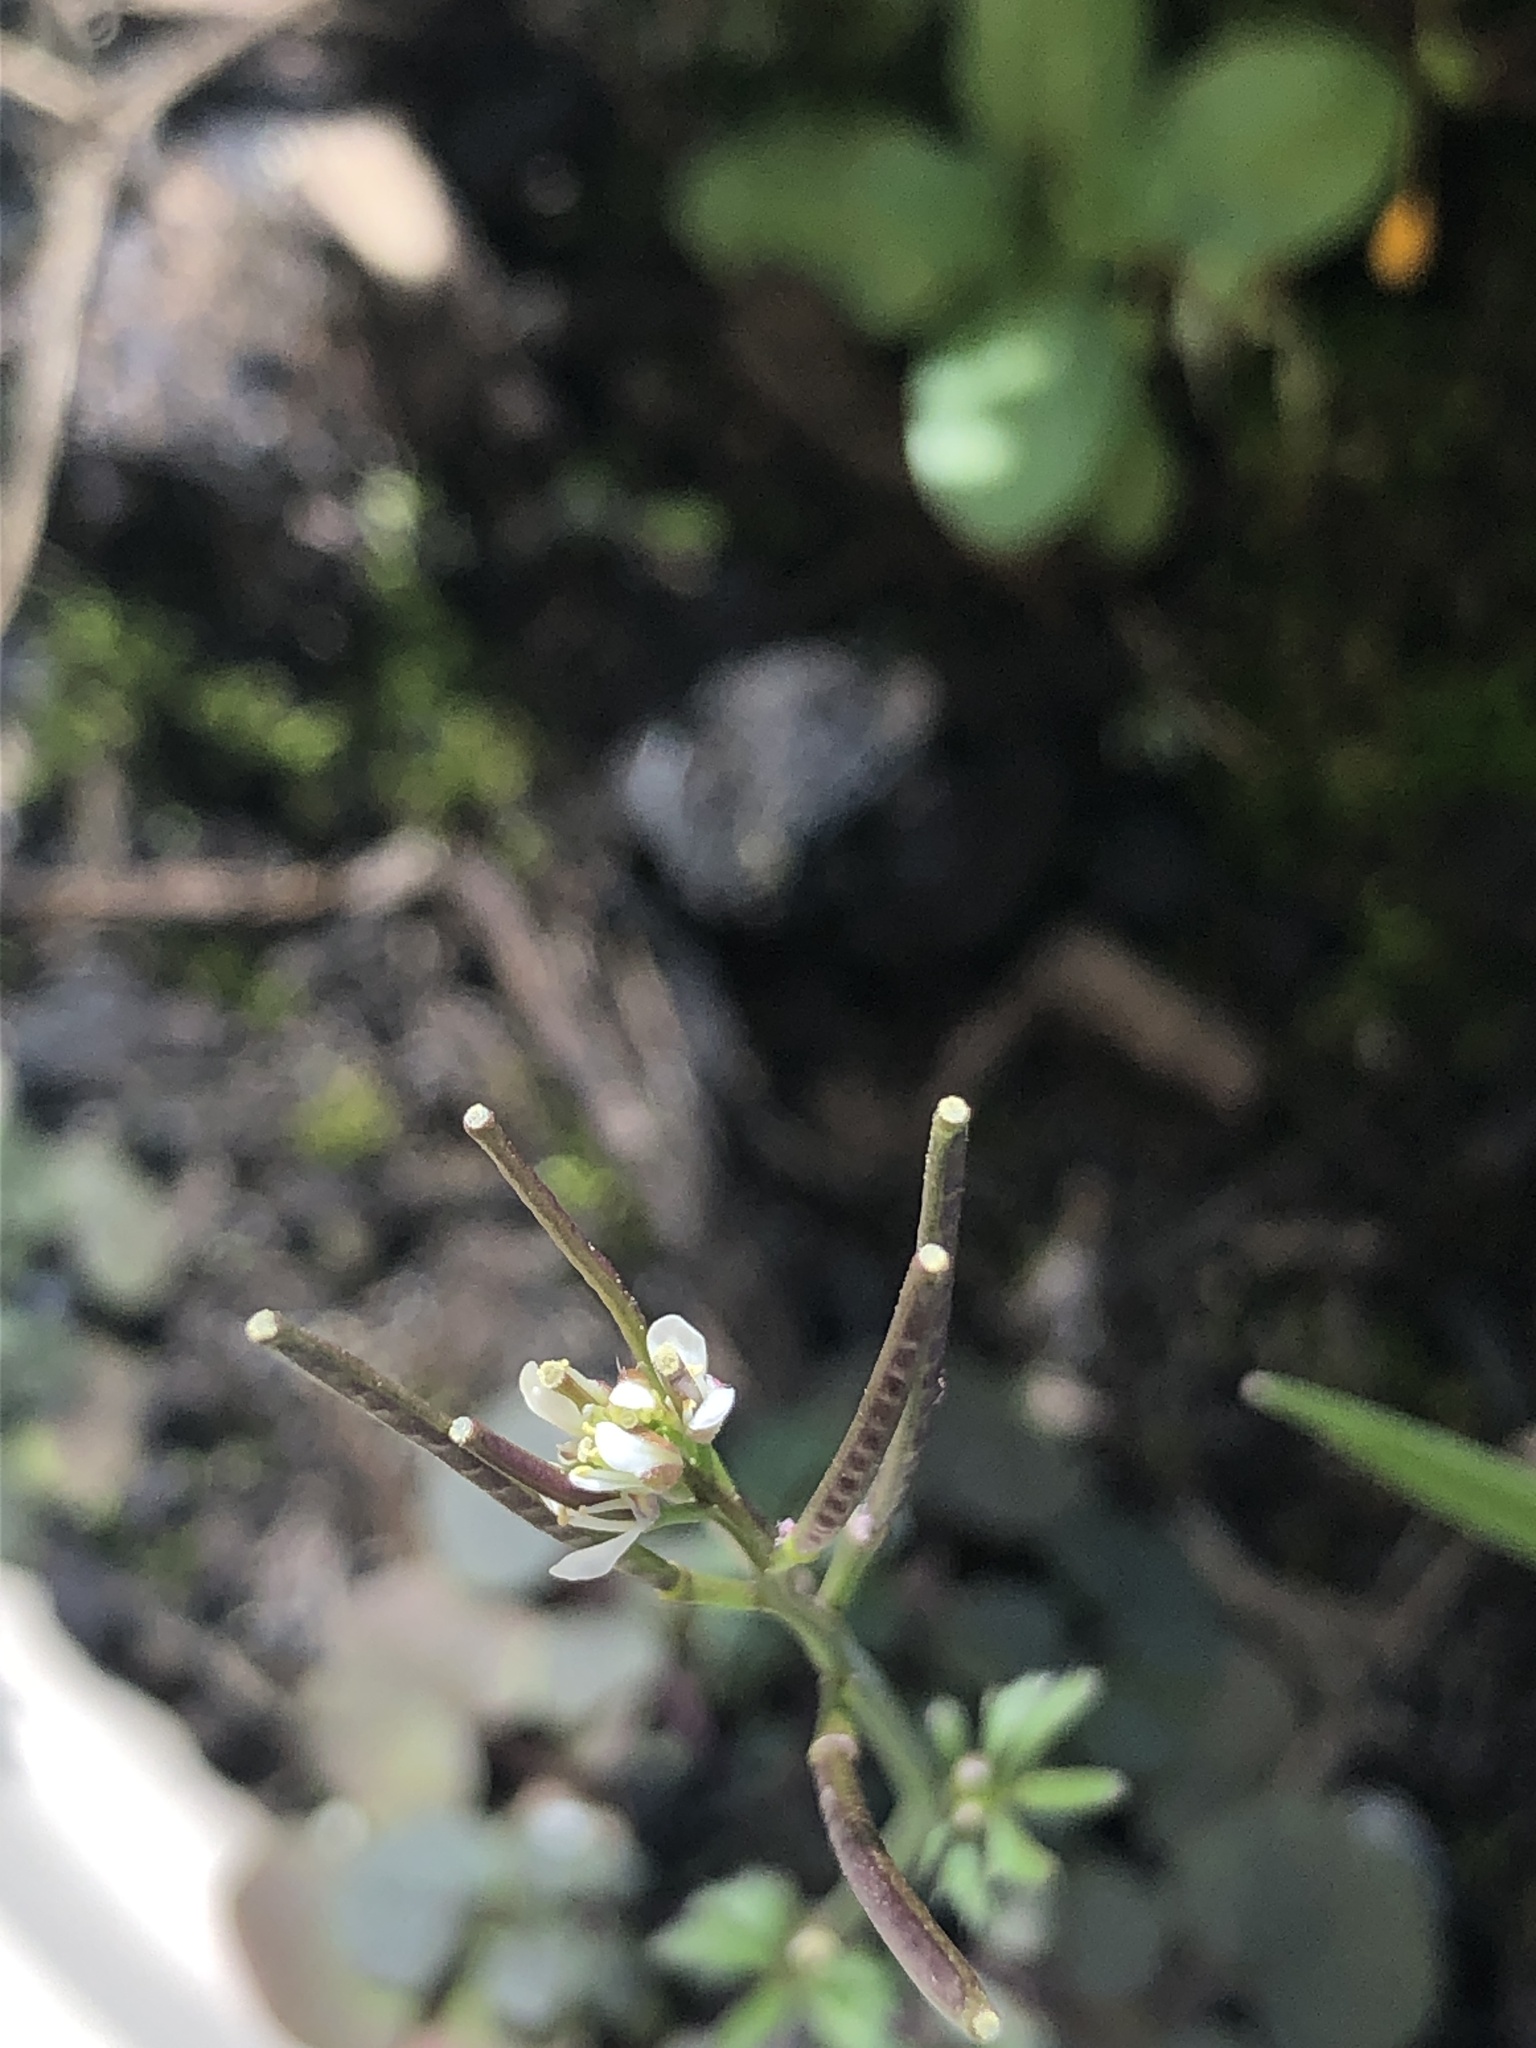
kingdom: Plantae
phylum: Tracheophyta
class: Magnoliopsida
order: Brassicales
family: Brassicaceae
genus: Cardamine
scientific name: Cardamine hirsuta
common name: Hairy bittercress
